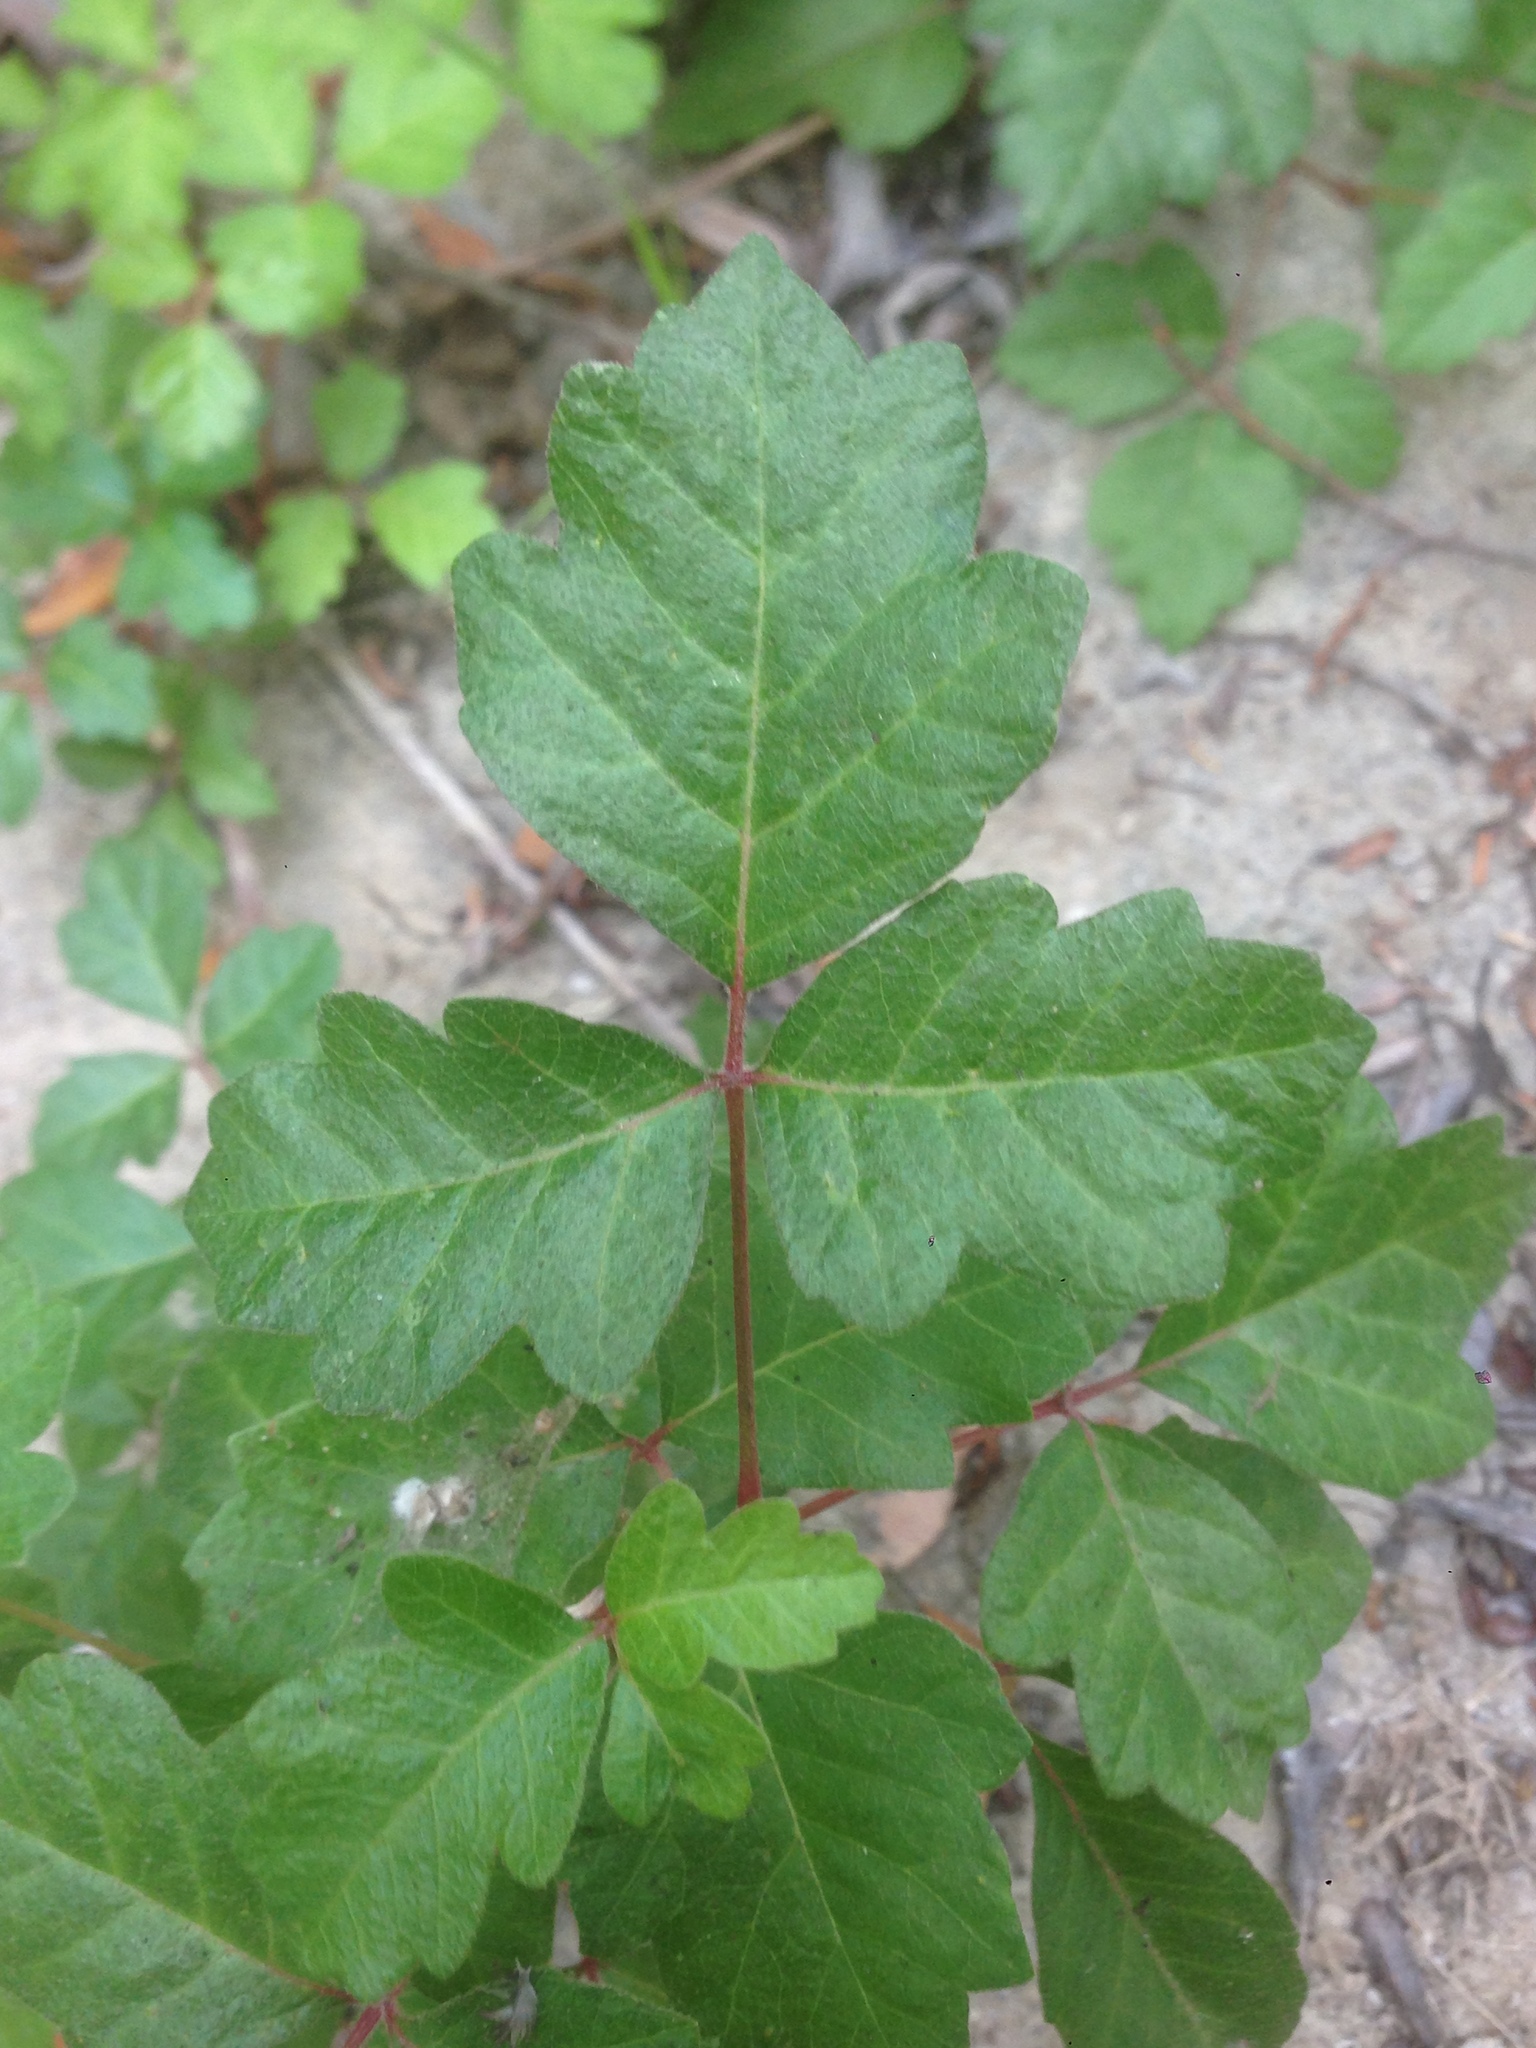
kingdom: Plantae
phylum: Tracheophyta
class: Magnoliopsida
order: Sapindales
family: Anacardiaceae
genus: Toxicodendron
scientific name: Toxicodendron diversilobum
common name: Pacific poison-oak
